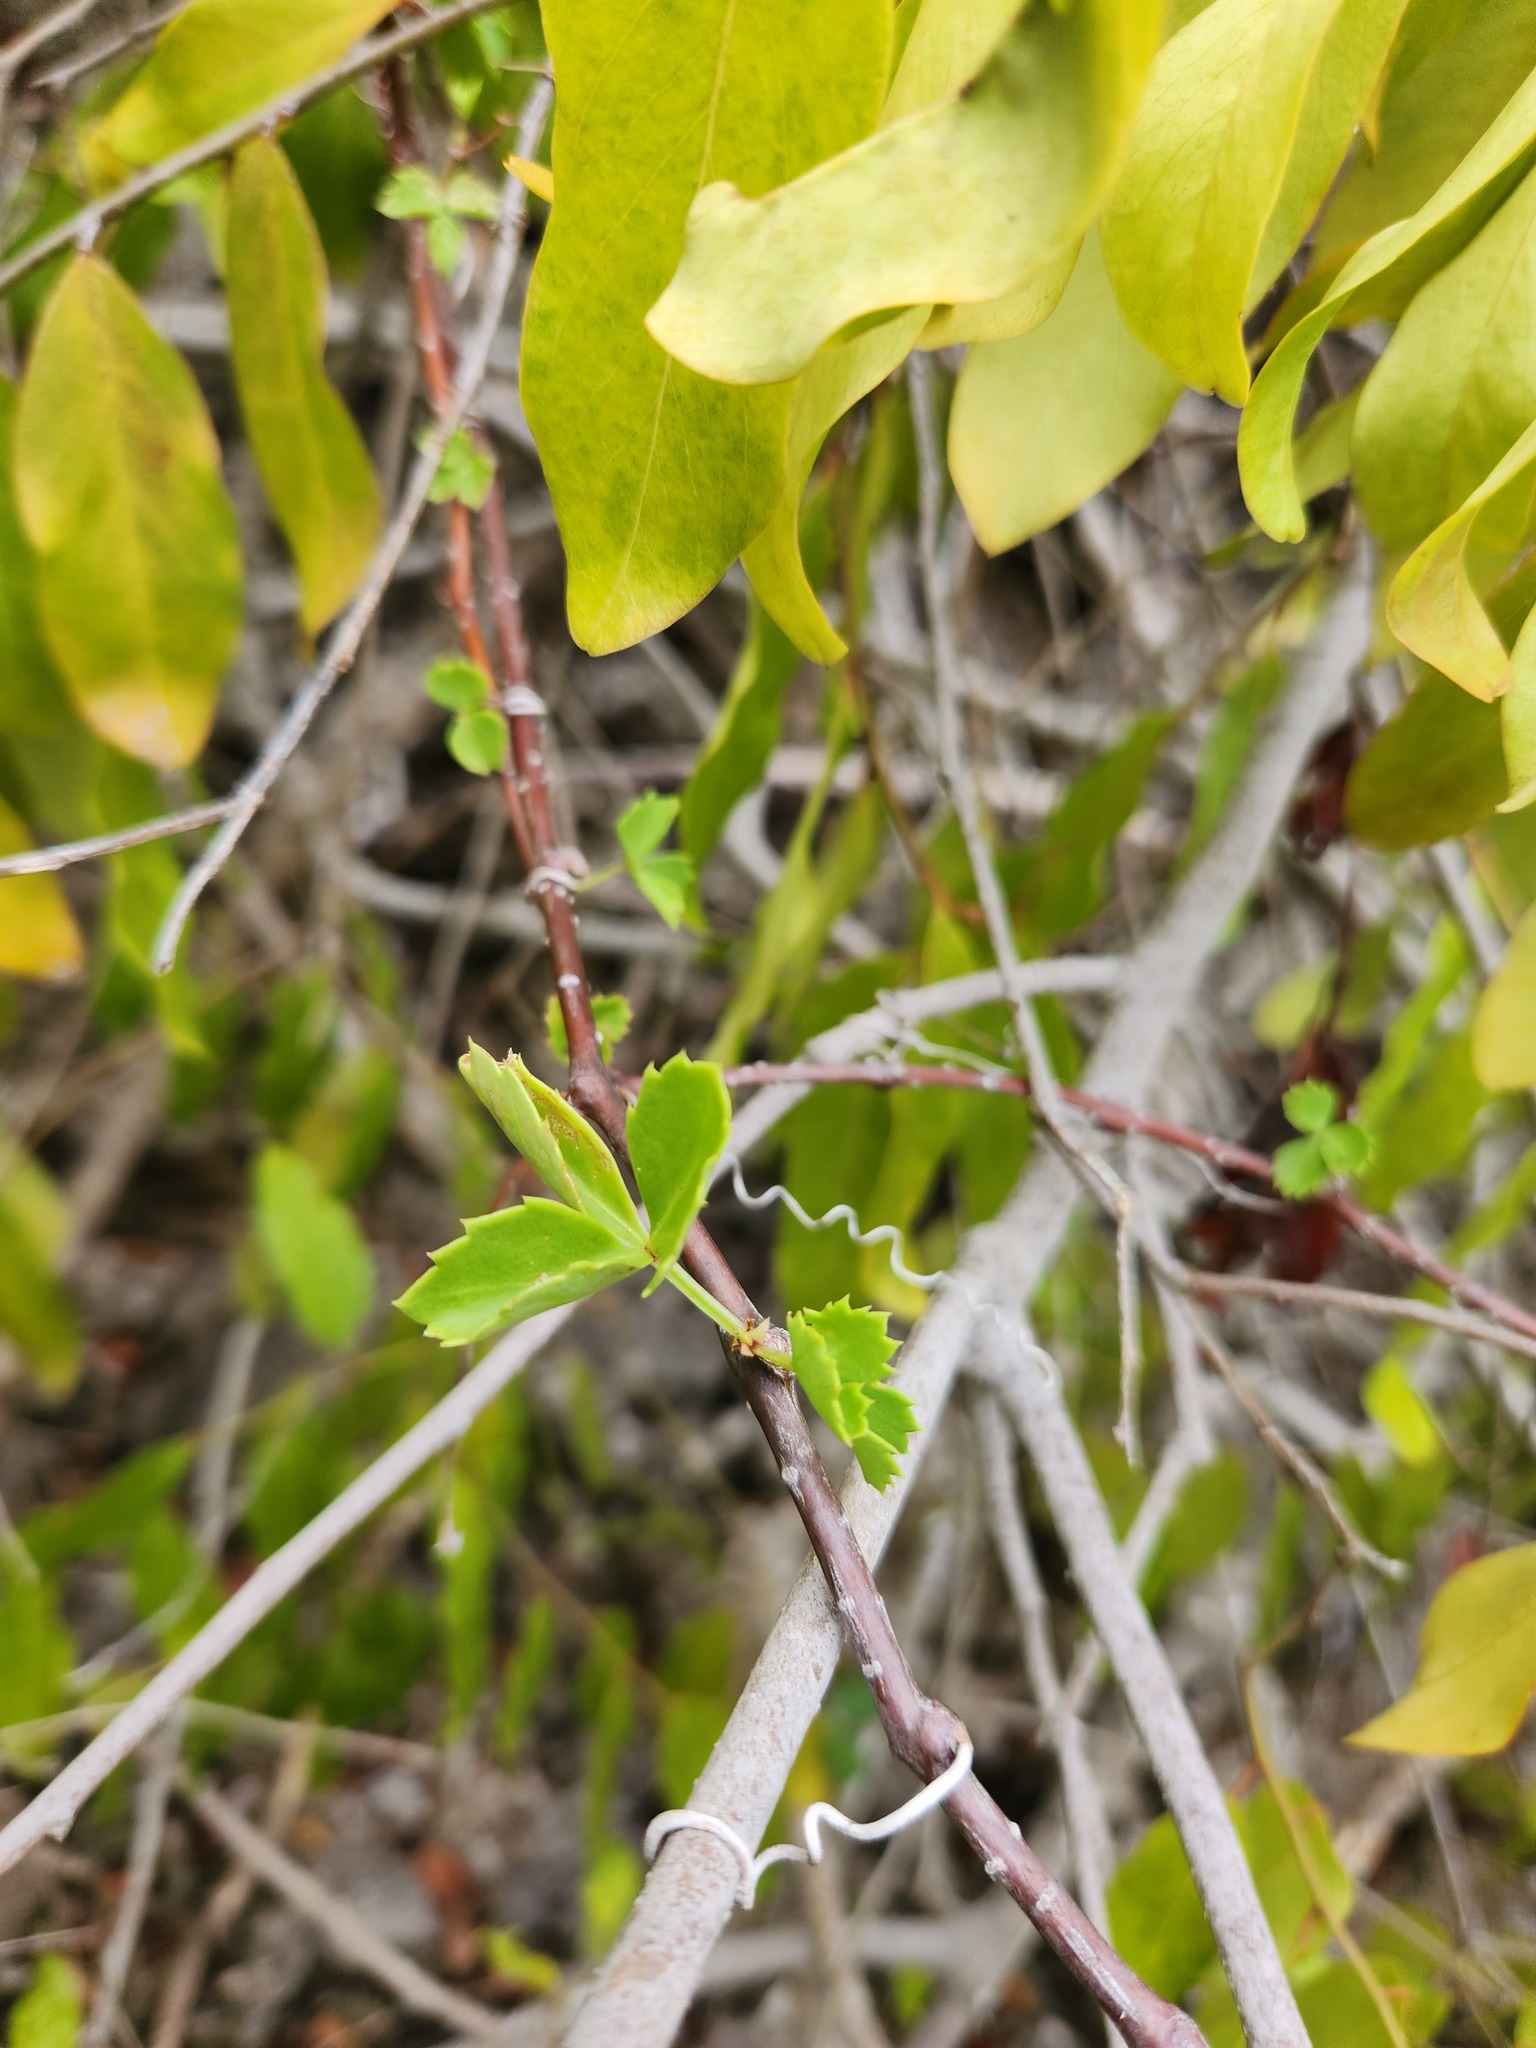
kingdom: Plantae
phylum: Tracheophyta
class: Magnoliopsida
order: Vitales
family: Vitaceae
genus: Cissus
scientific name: Cissus trifoliata
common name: Vine-sorrel
